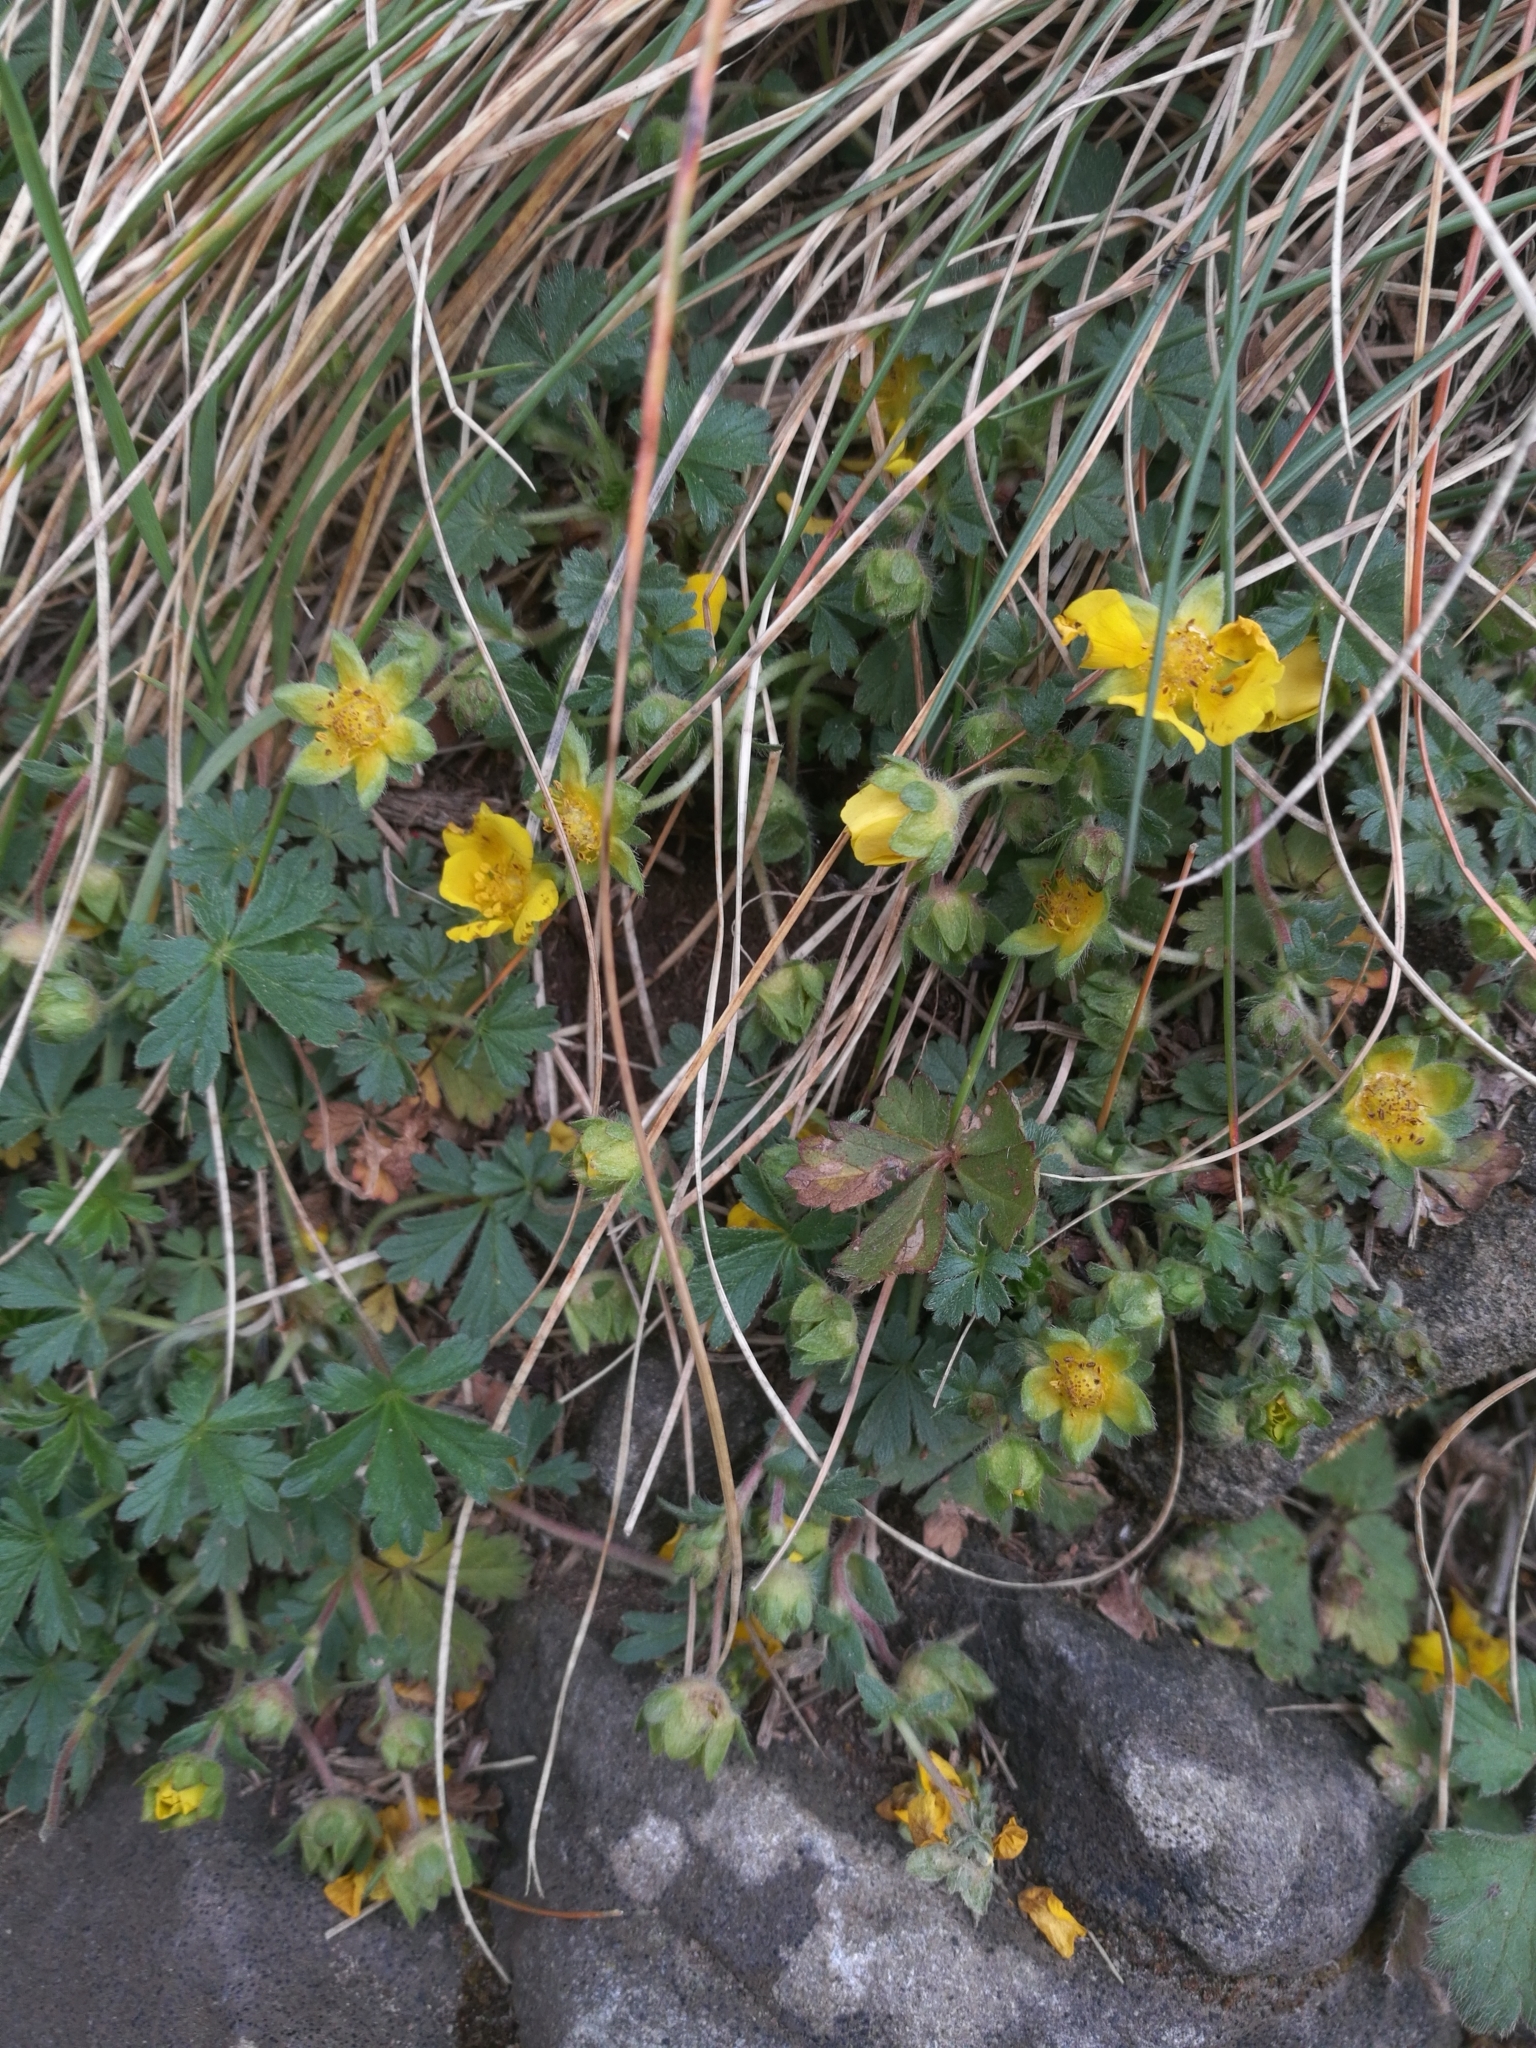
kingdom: Plantae
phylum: Tracheophyta
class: Magnoliopsida
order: Rosales
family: Rosaceae
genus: Potentilla
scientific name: Potentilla verna
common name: Spring cinquefoil
